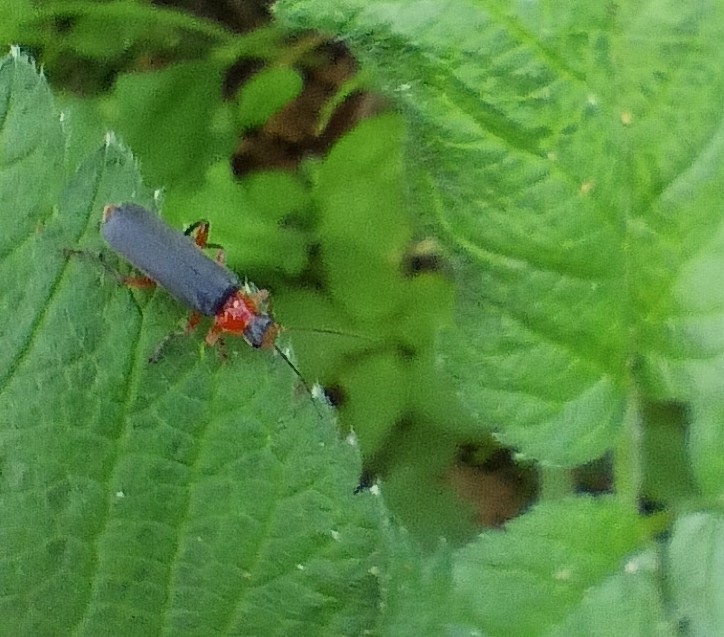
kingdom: Animalia
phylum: Arthropoda
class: Insecta
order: Coleoptera
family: Cantharidae
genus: Cantharis
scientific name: Cantharis pellucida
